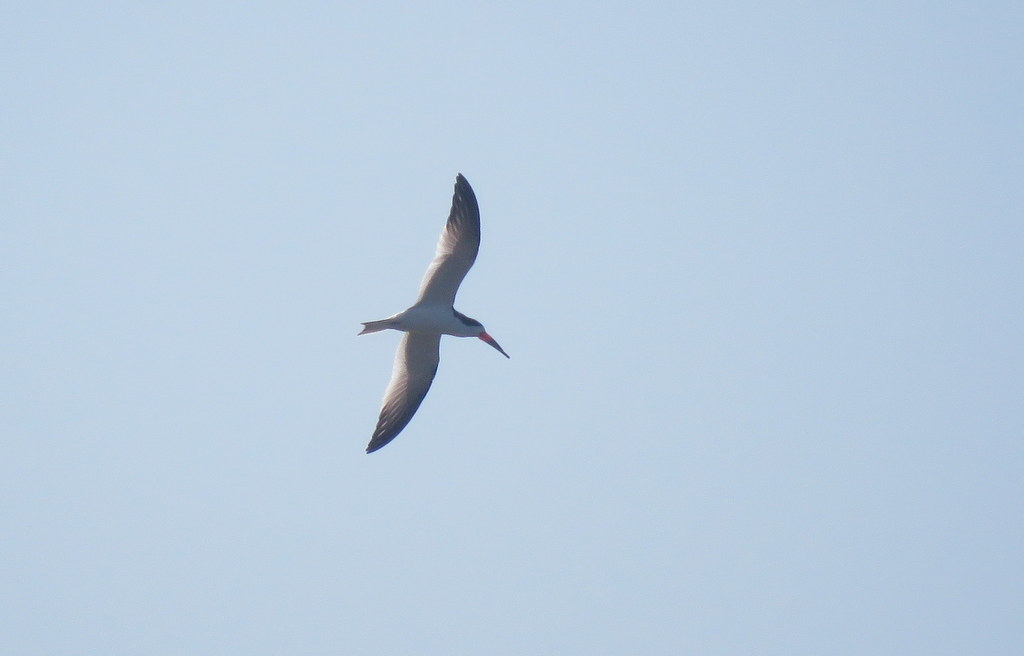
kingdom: Animalia
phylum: Chordata
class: Aves
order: Charadriiformes
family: Laridae
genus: Rynchops
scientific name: Rynchops niger
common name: Black skimmer
